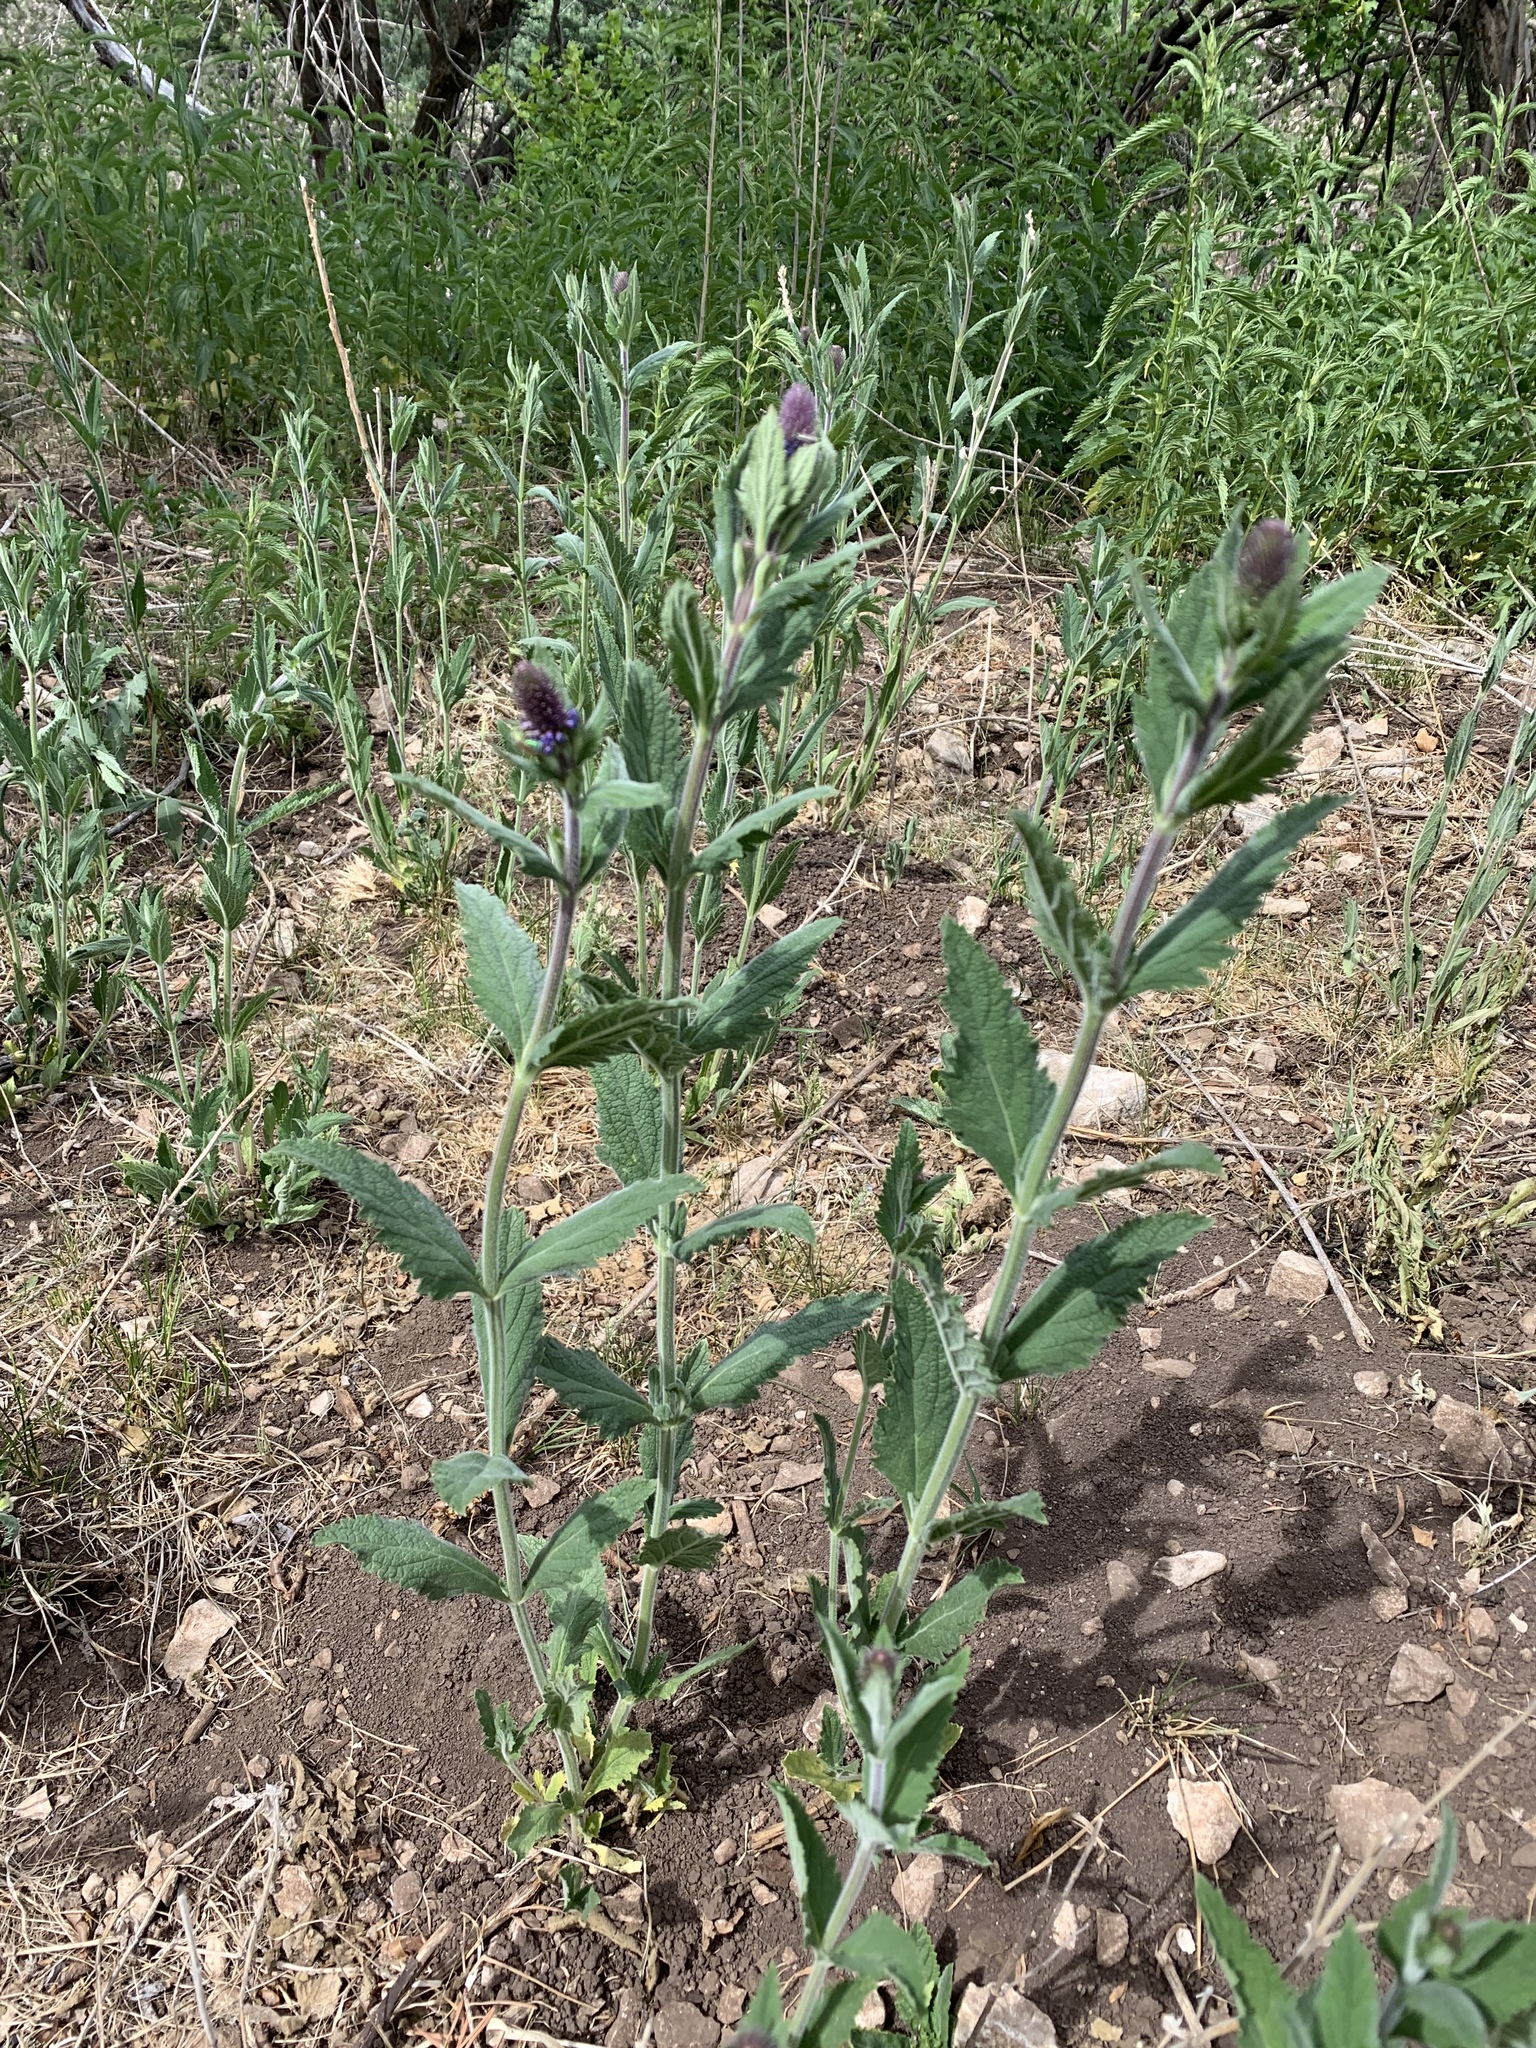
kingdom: Plantae
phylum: Tracheophyta
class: Magnoliopsida
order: Lamiales
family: Verbenaceae
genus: Verbena
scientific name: Verbena macdougalii
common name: New mexico vervain
